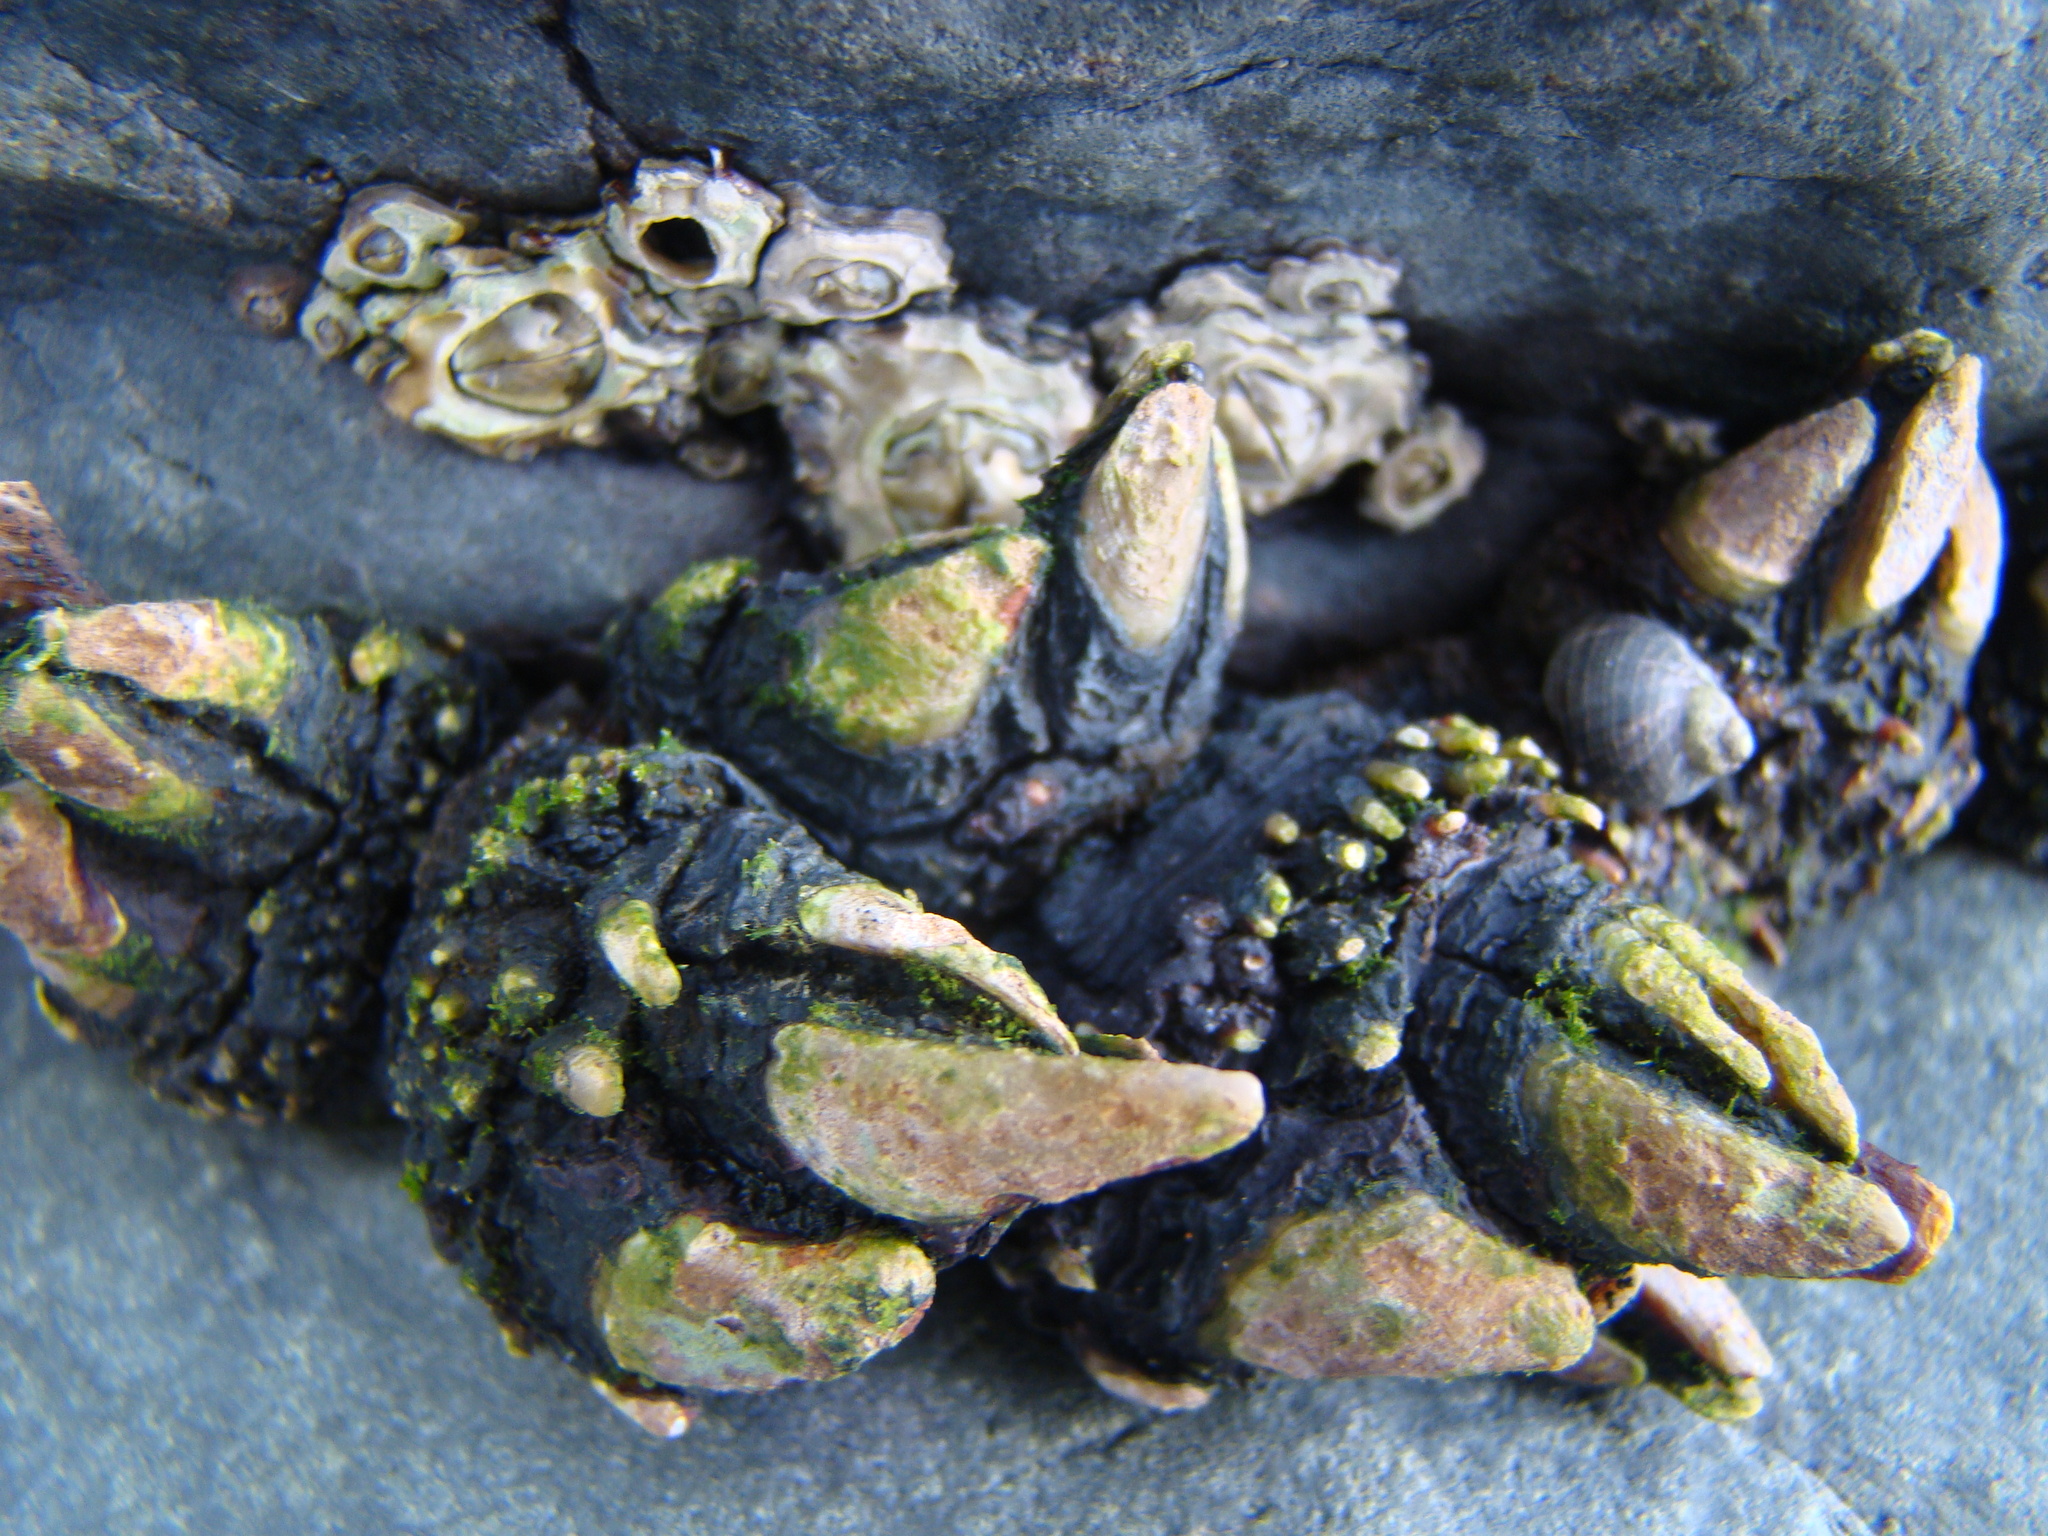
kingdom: Animalia
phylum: Arthropoda
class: Maxillopoda
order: Pedunculata
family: Calanticidae
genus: Calantica
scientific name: Calantica spinosa
